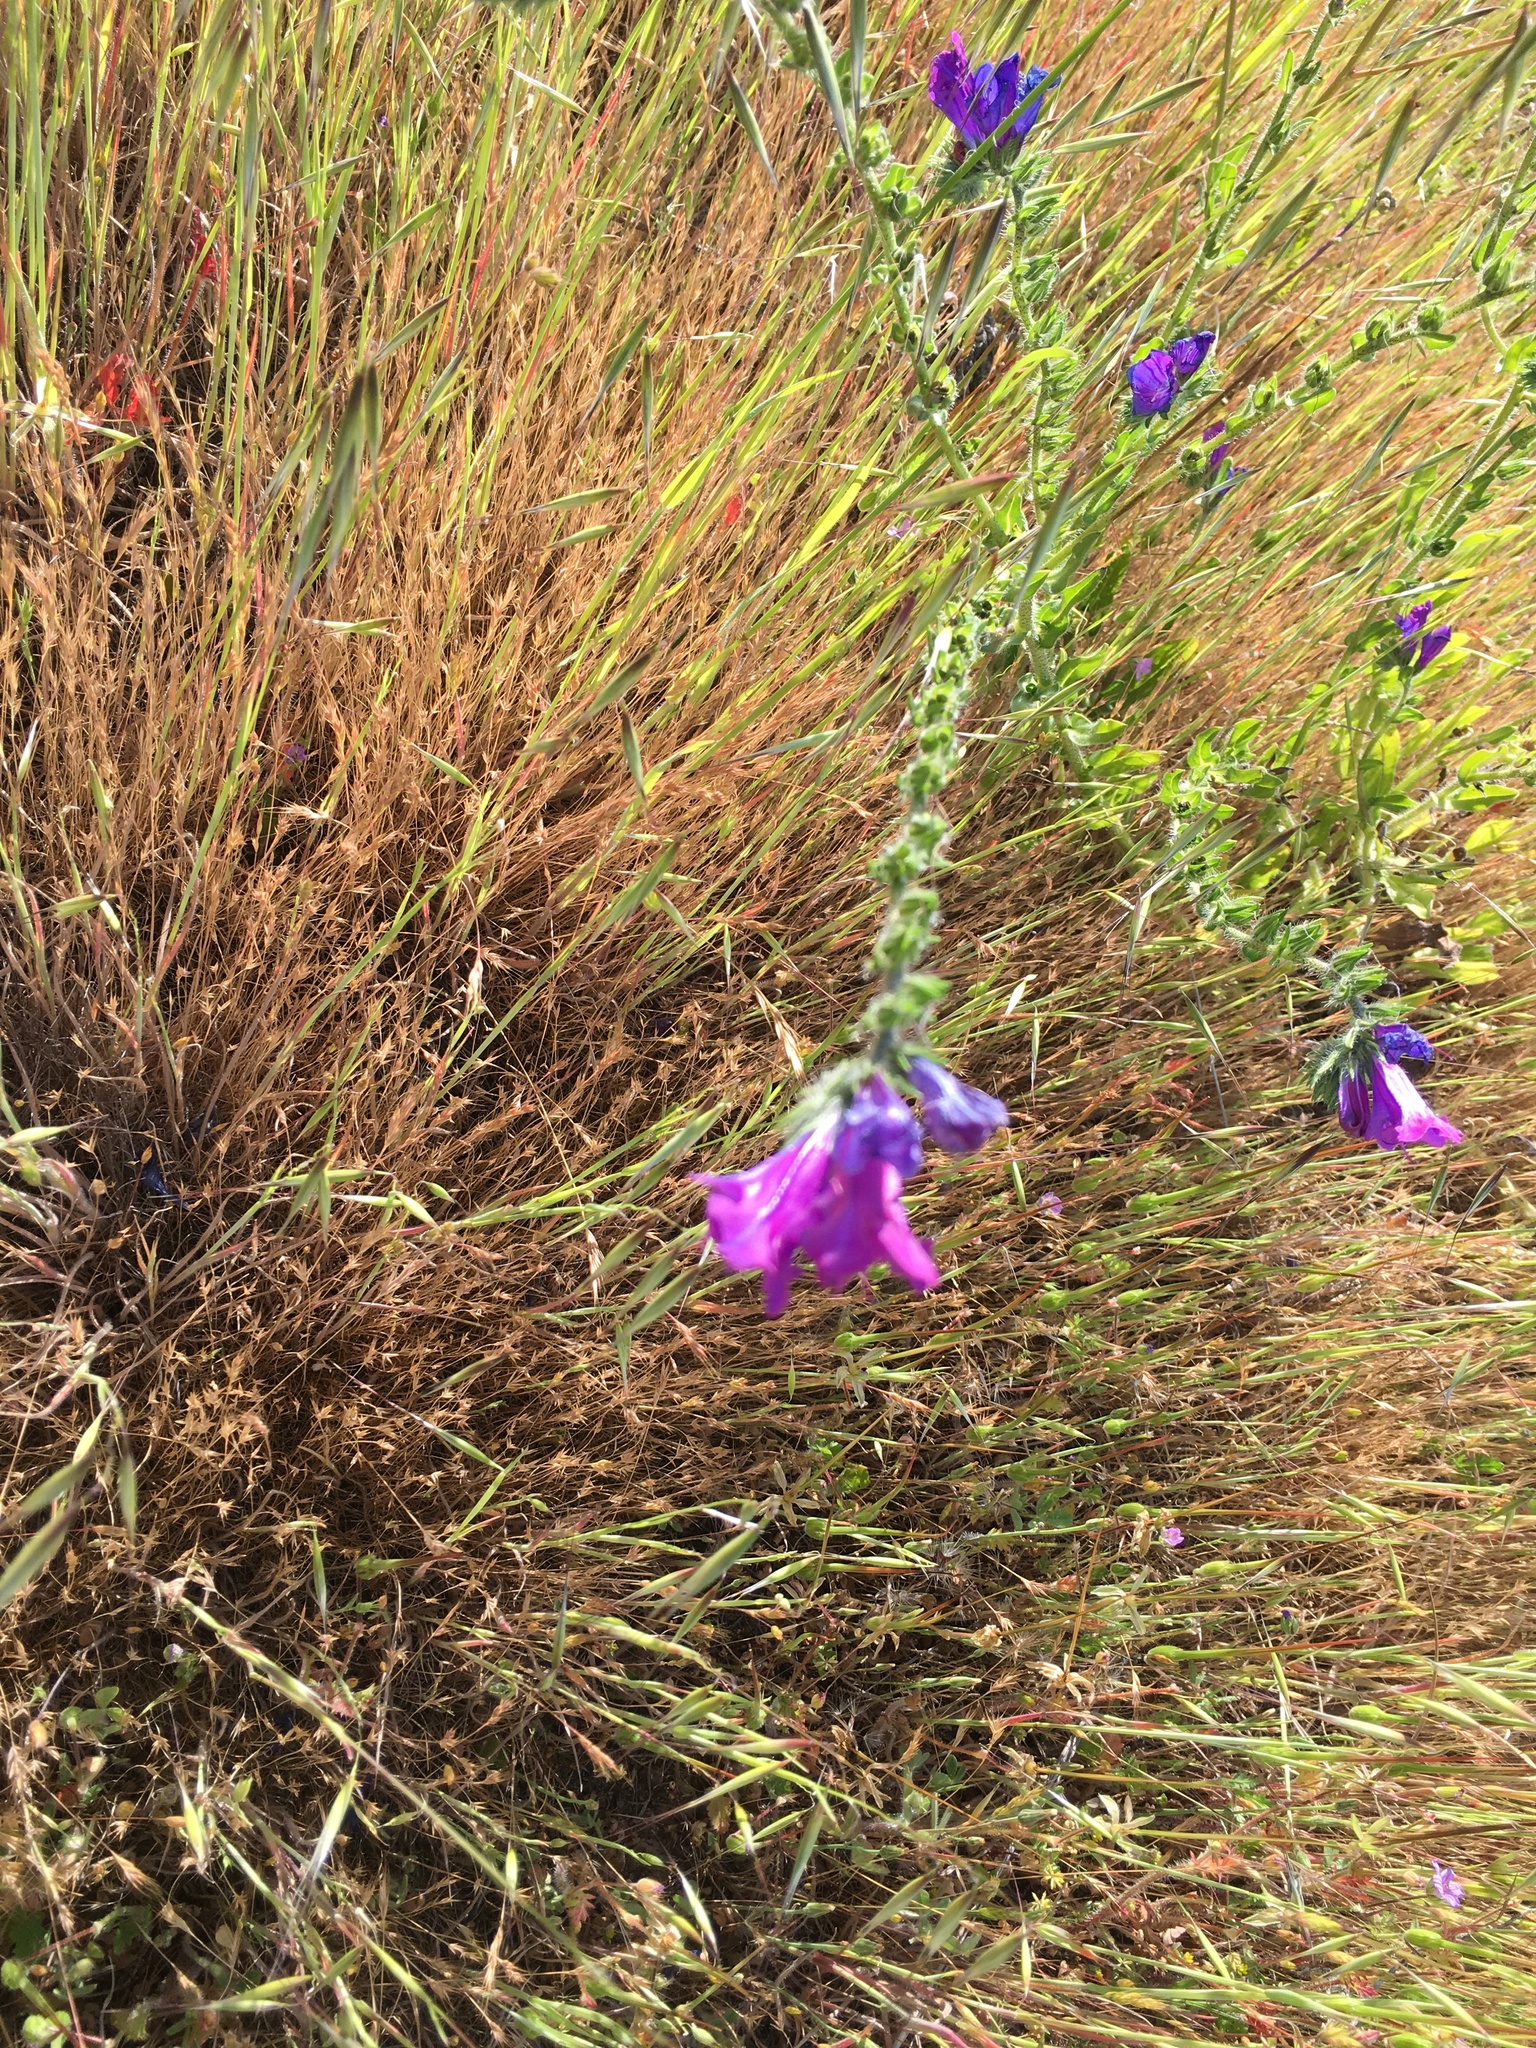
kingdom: Plantae
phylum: Tracheophyta
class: Magnoliopsida
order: Boraginales
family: Boraginaceae
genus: Echium
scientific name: Echium plantagineum
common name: Purple viper's-bugloss
